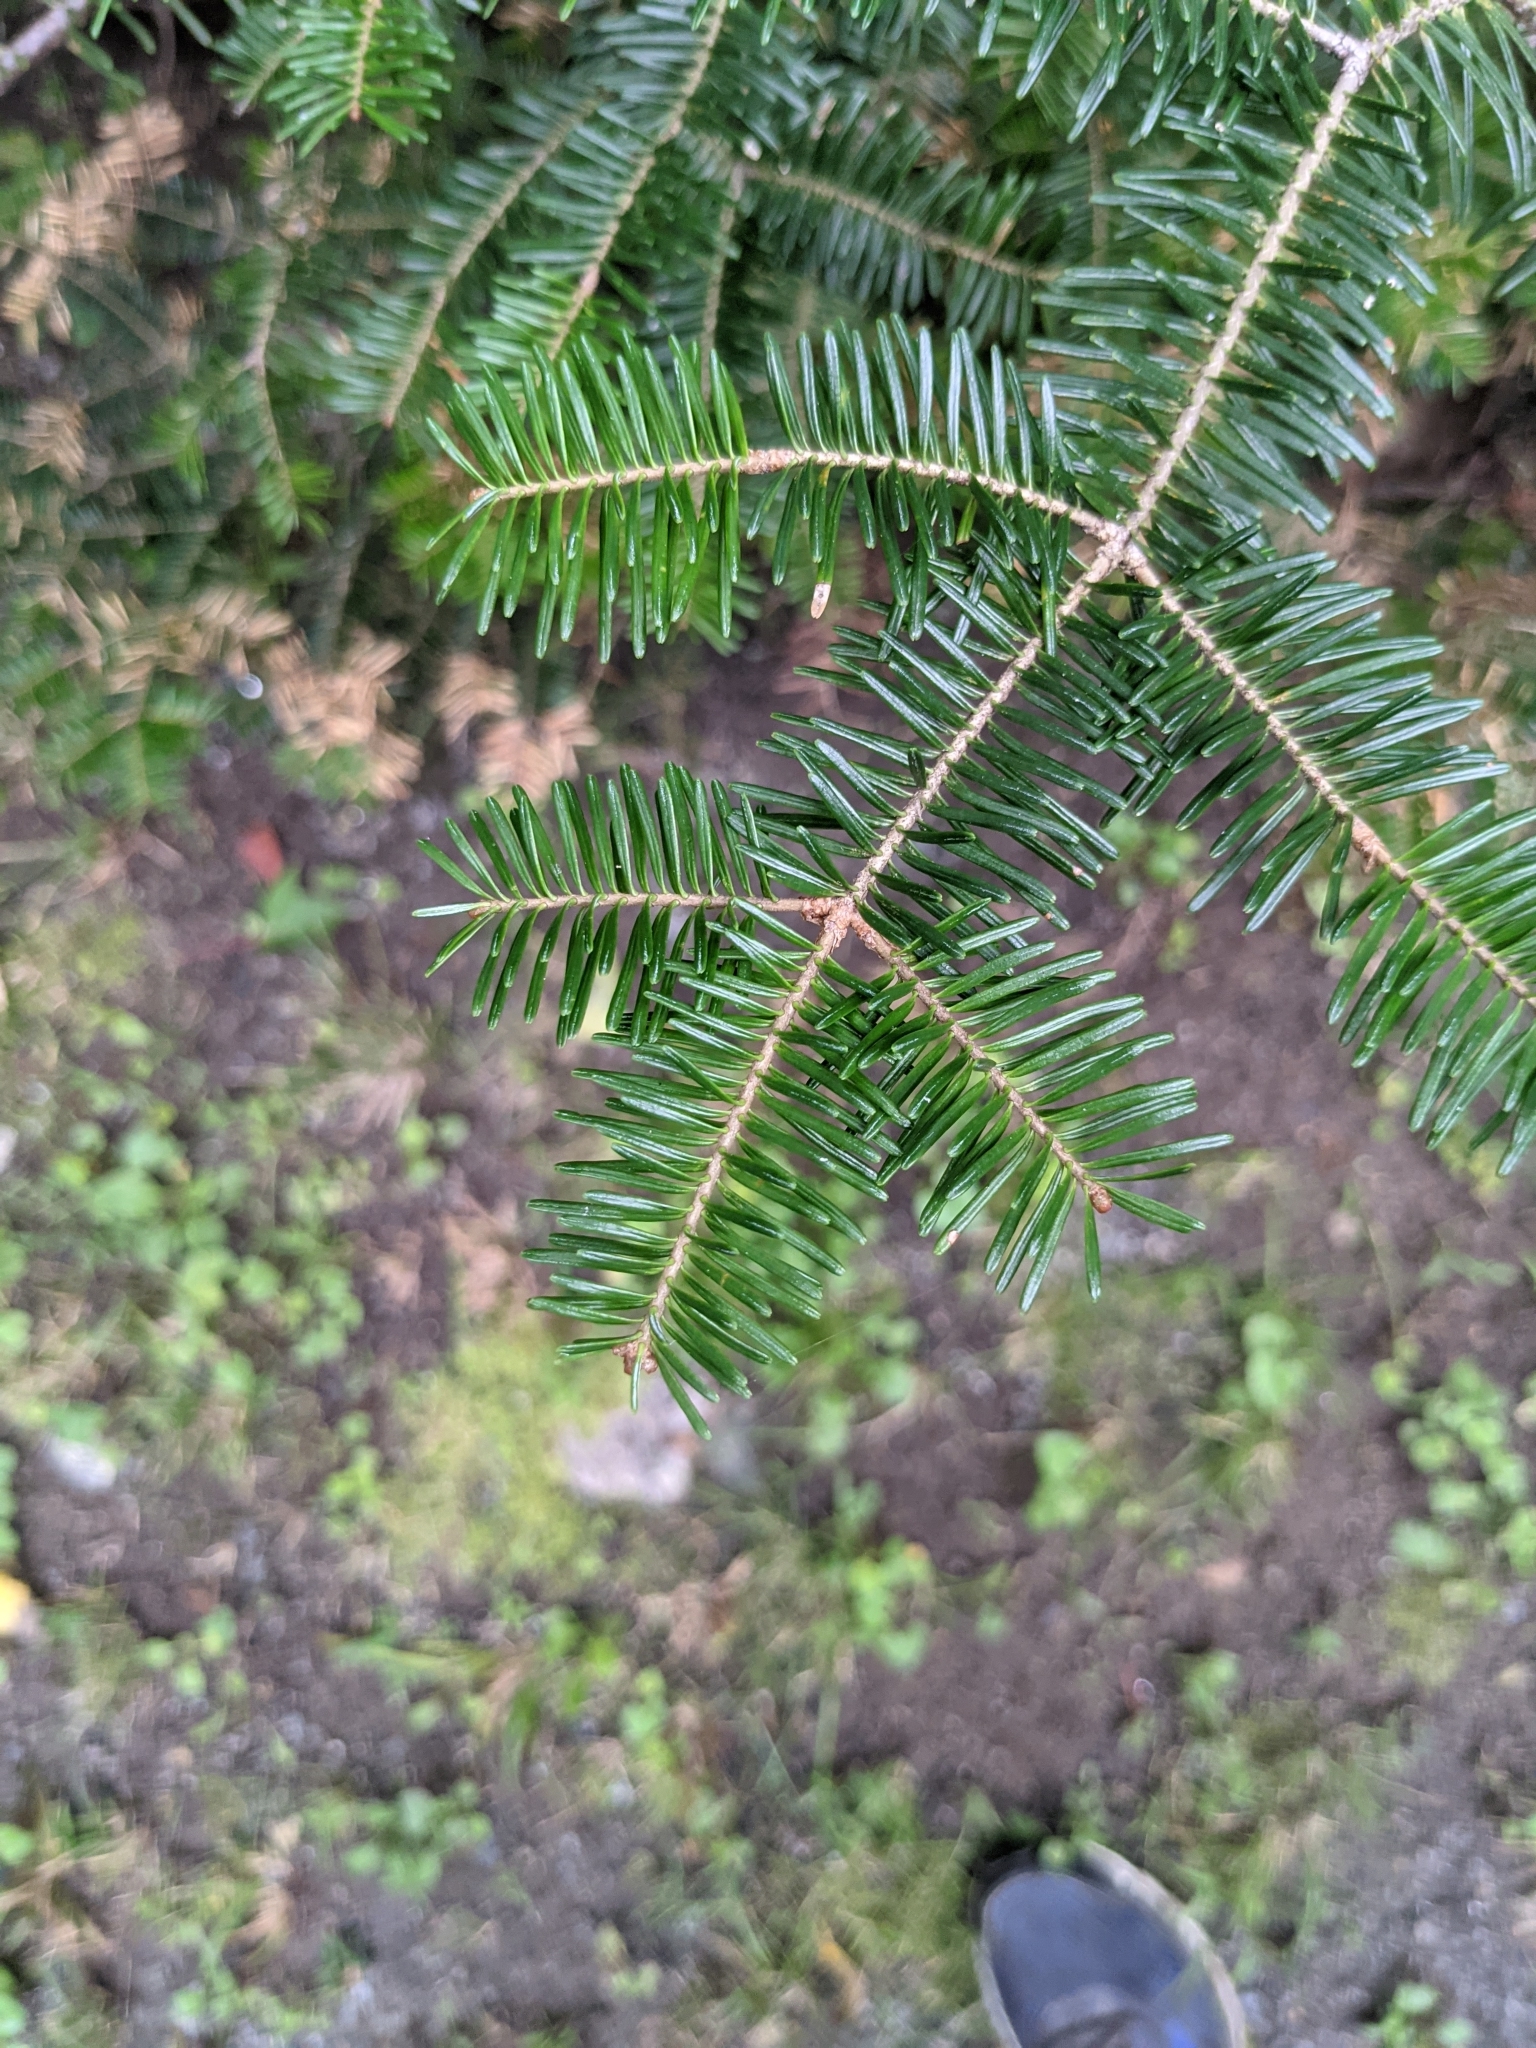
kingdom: Plantae
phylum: Tracheophyta
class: Pinopsida
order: Pinales
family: Pinaceae
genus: Abies
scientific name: Abies balsamea
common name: Balsam fir
